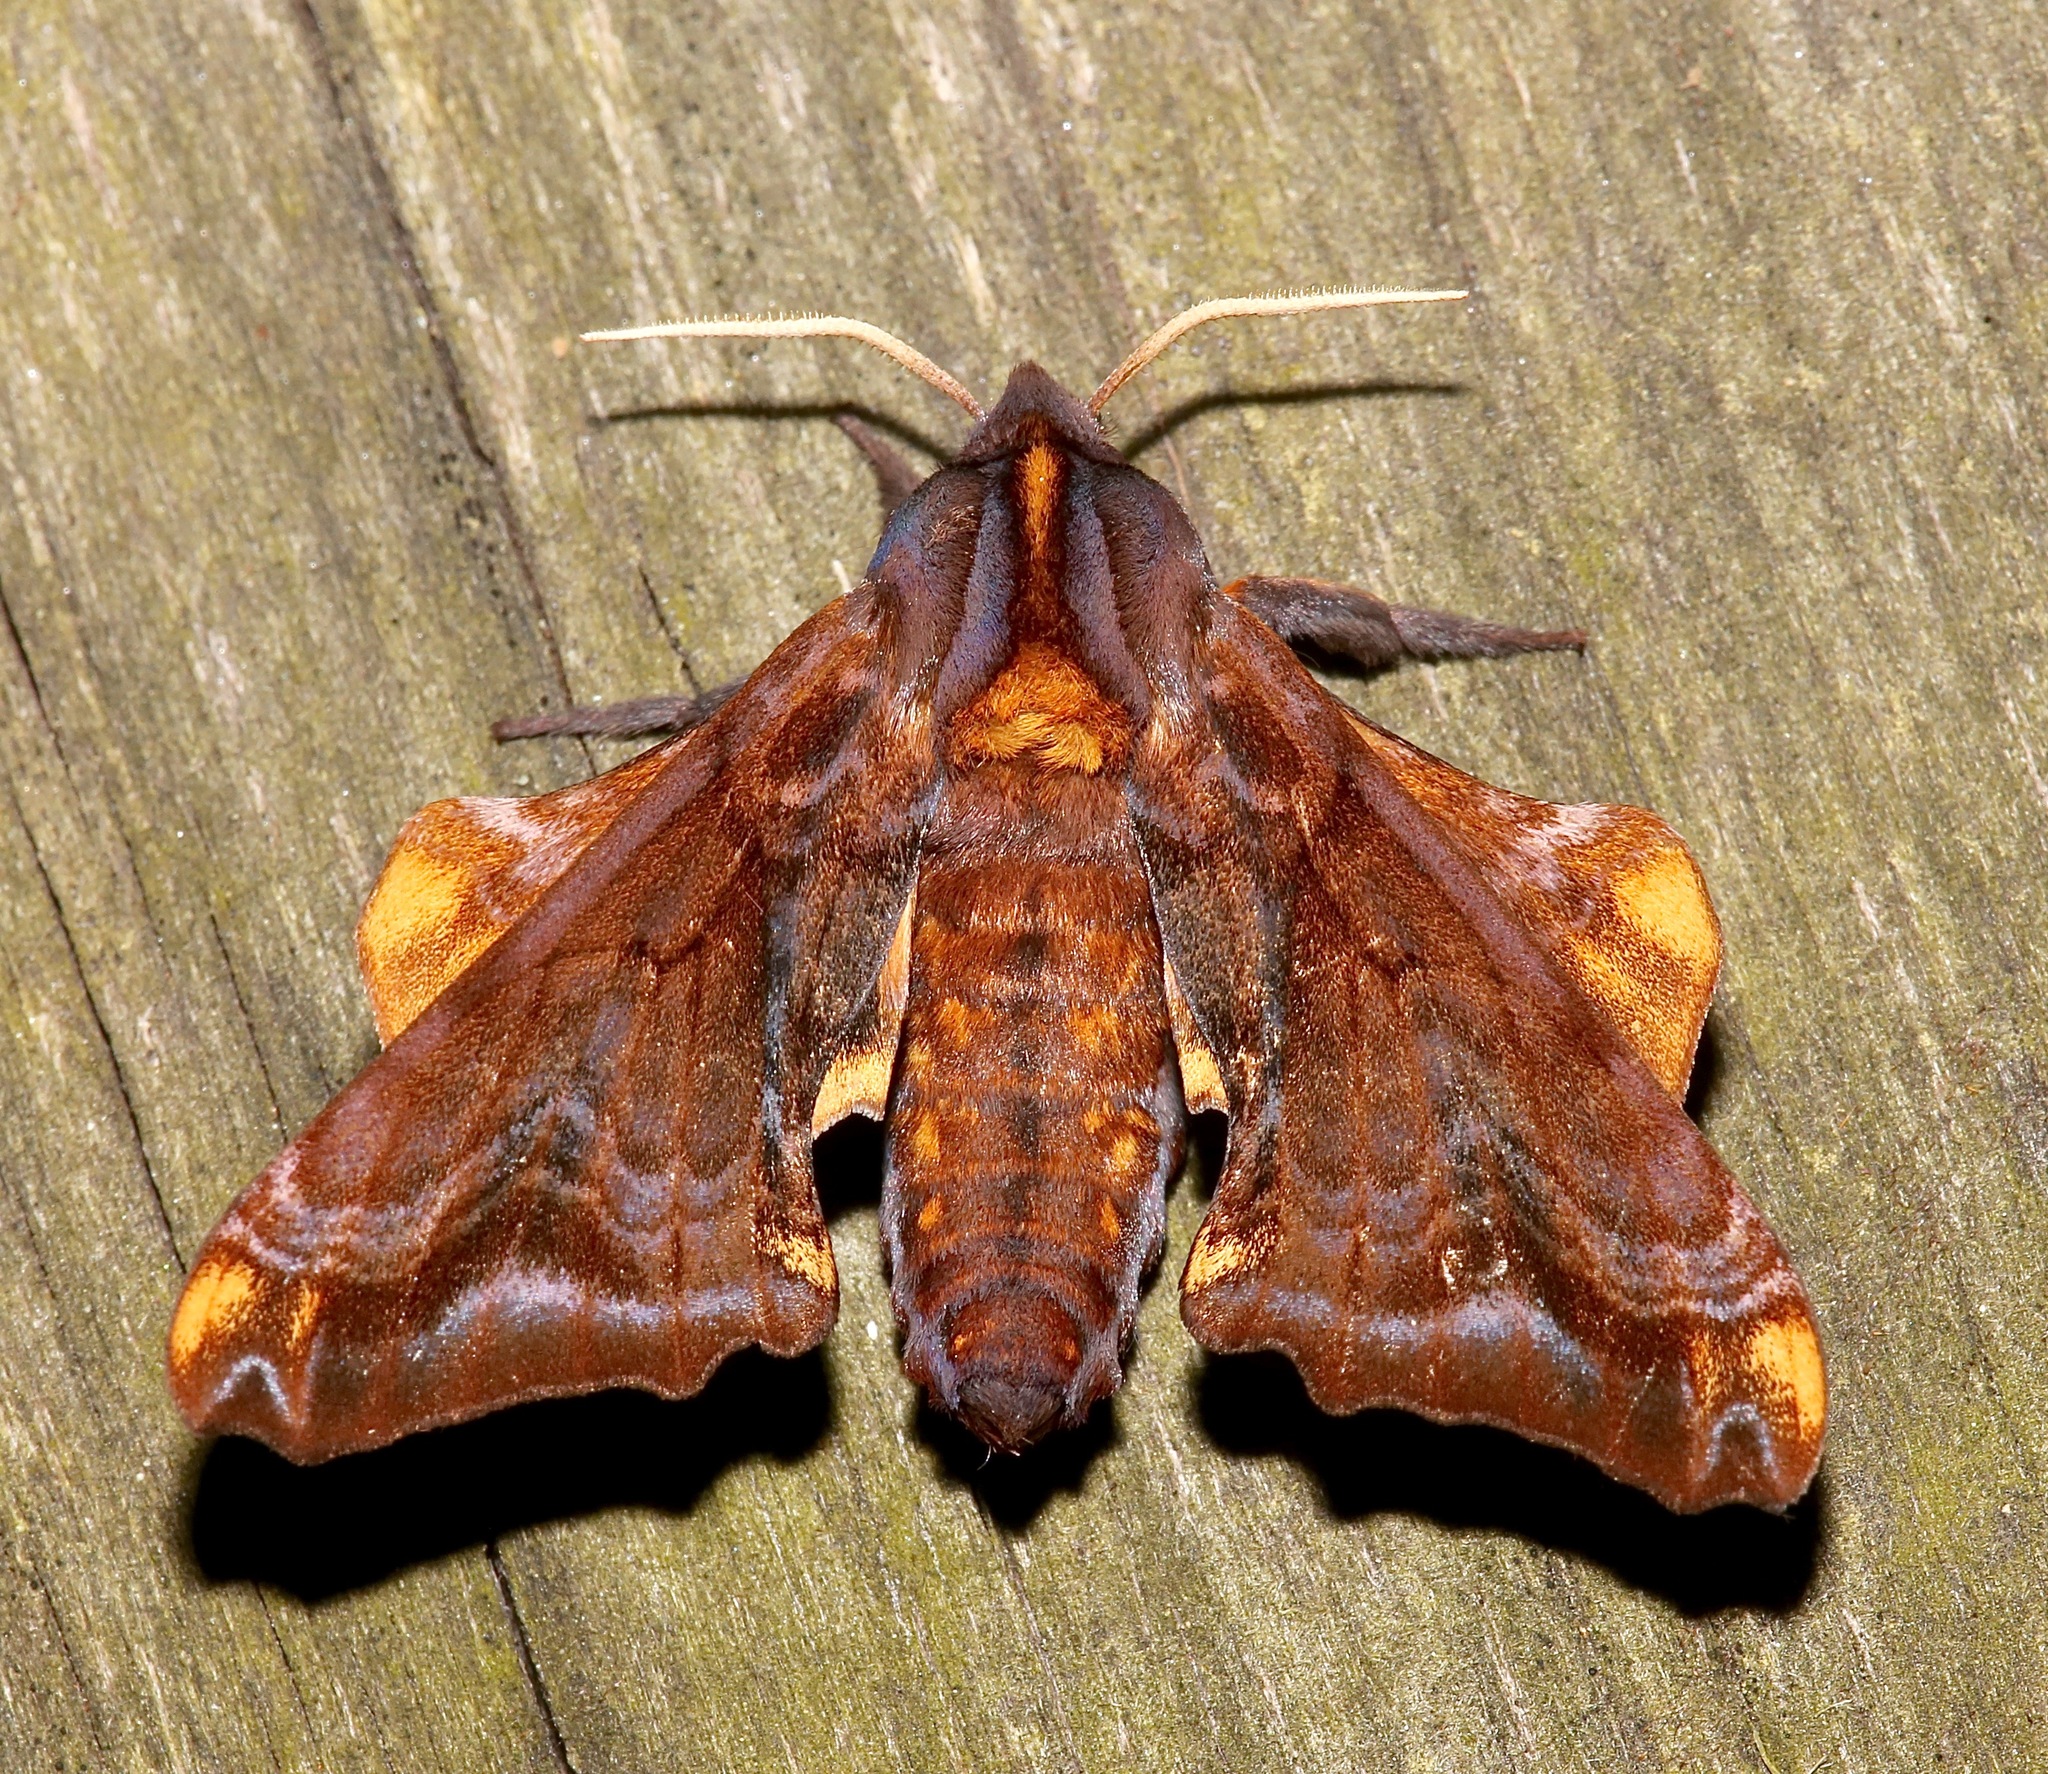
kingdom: Animalia
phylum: Arthropoda
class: Insecta
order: Lepidoptera
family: Sphingidae
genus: Paonias
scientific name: Paonias myops
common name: Small-eyed sphinx
